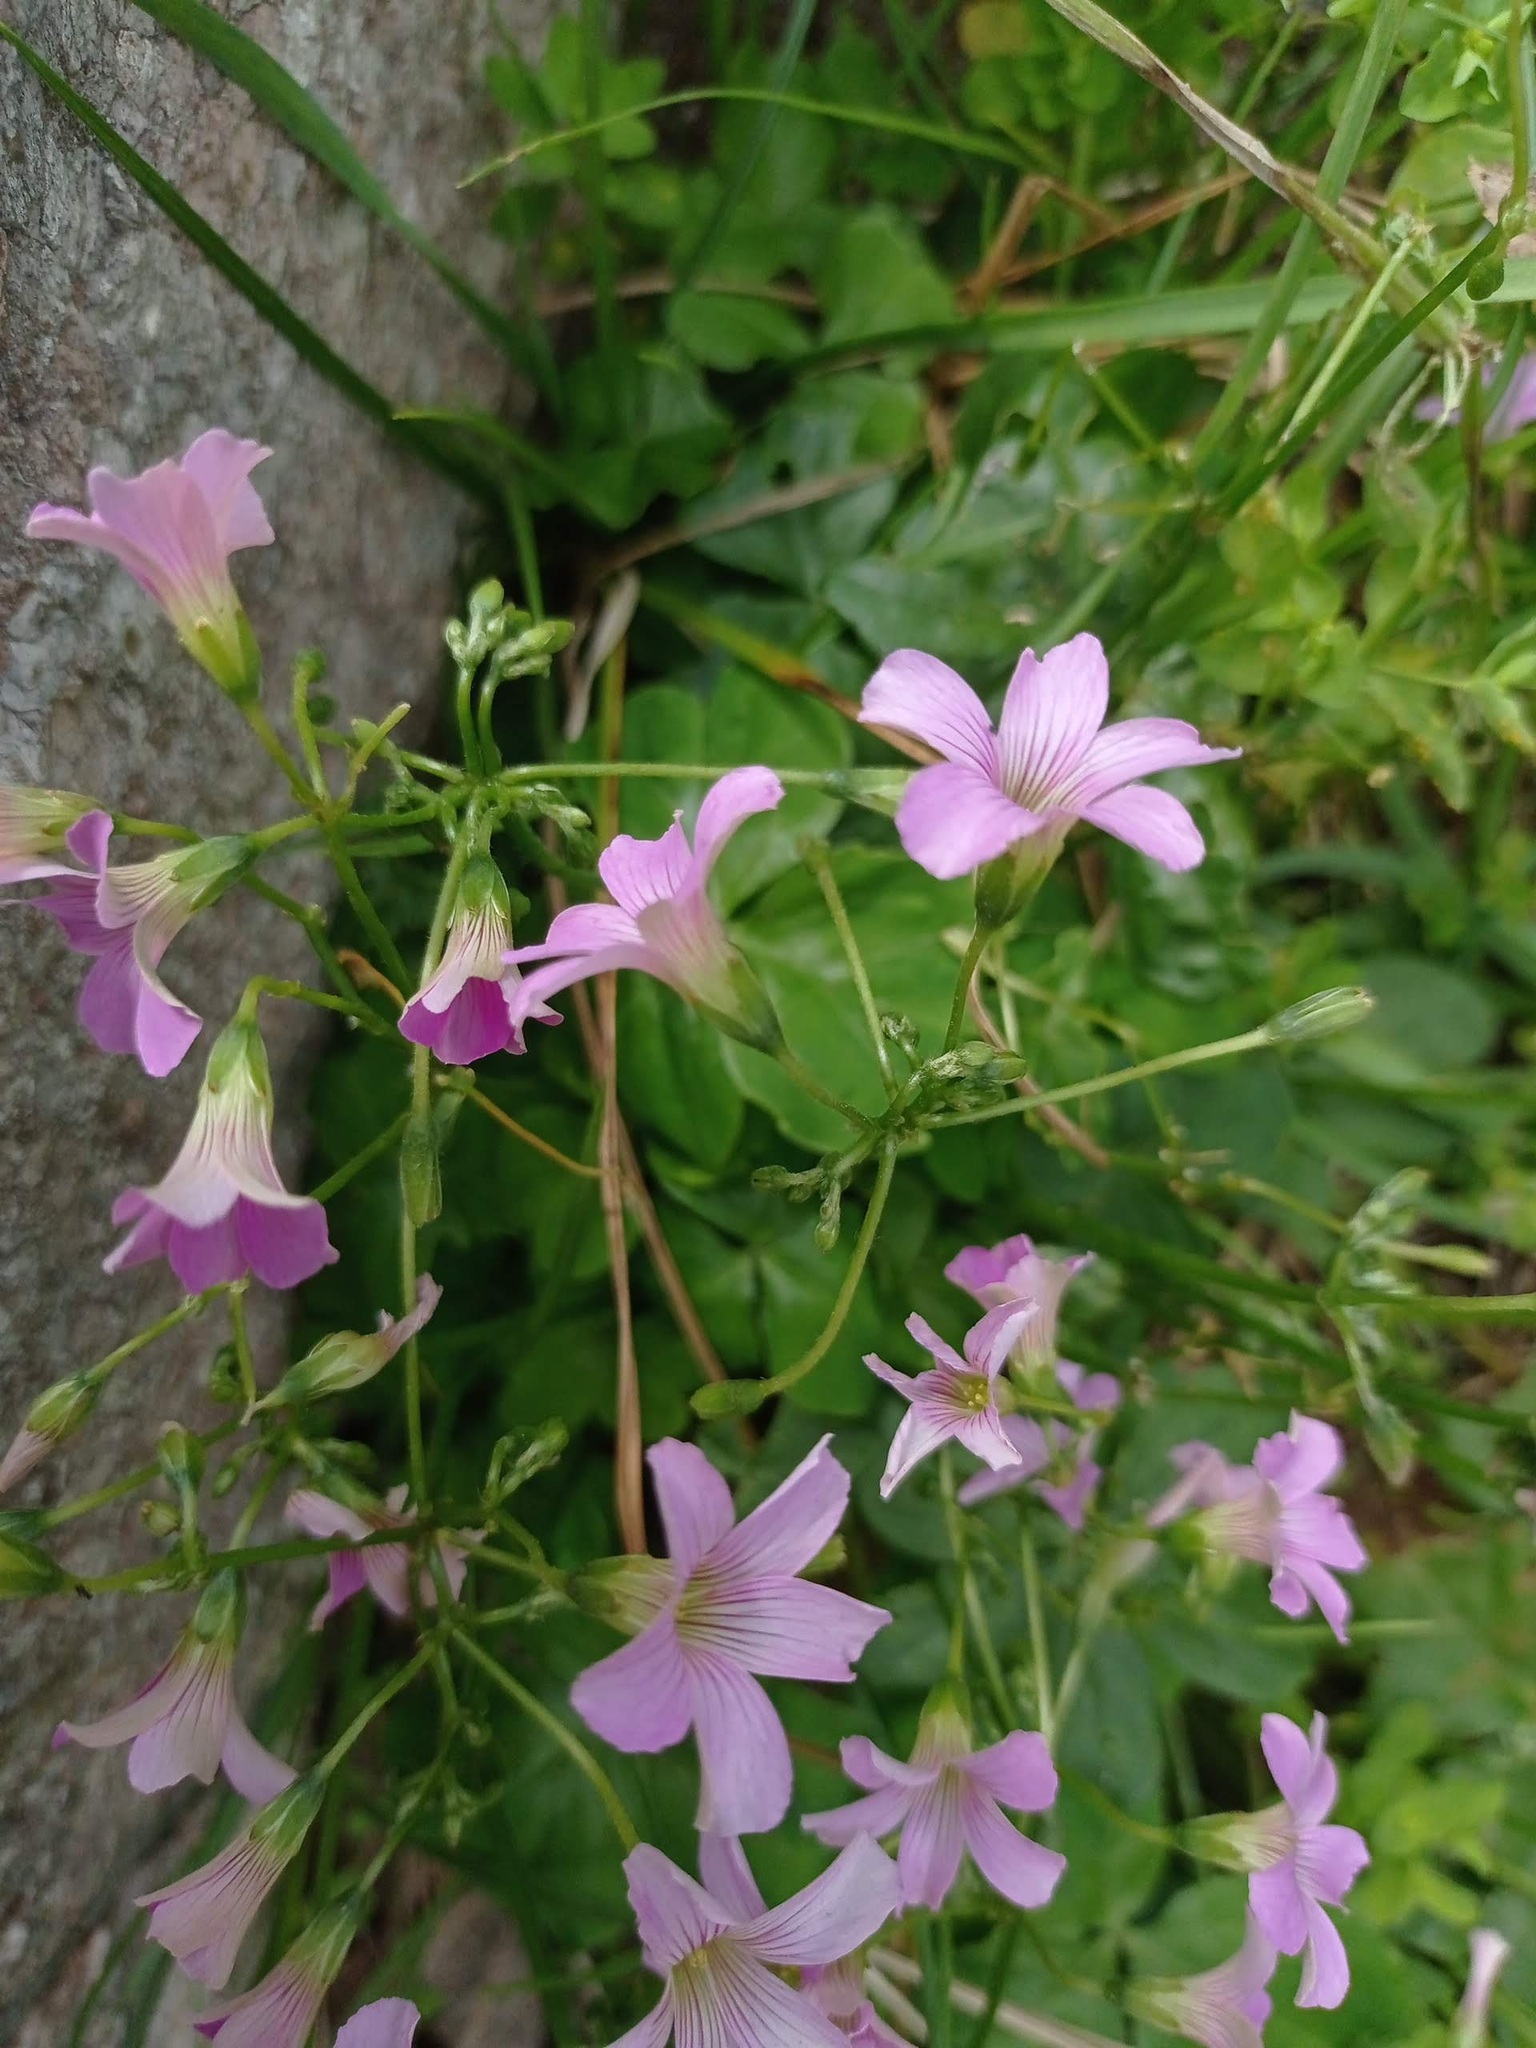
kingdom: Plantae
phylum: Tracheophyta
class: Magnoliopsida
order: Oxalidales
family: Oxalidaceae
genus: Oxalis
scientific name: Oxalis debilis
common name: Large-flowered pink-sorrel
